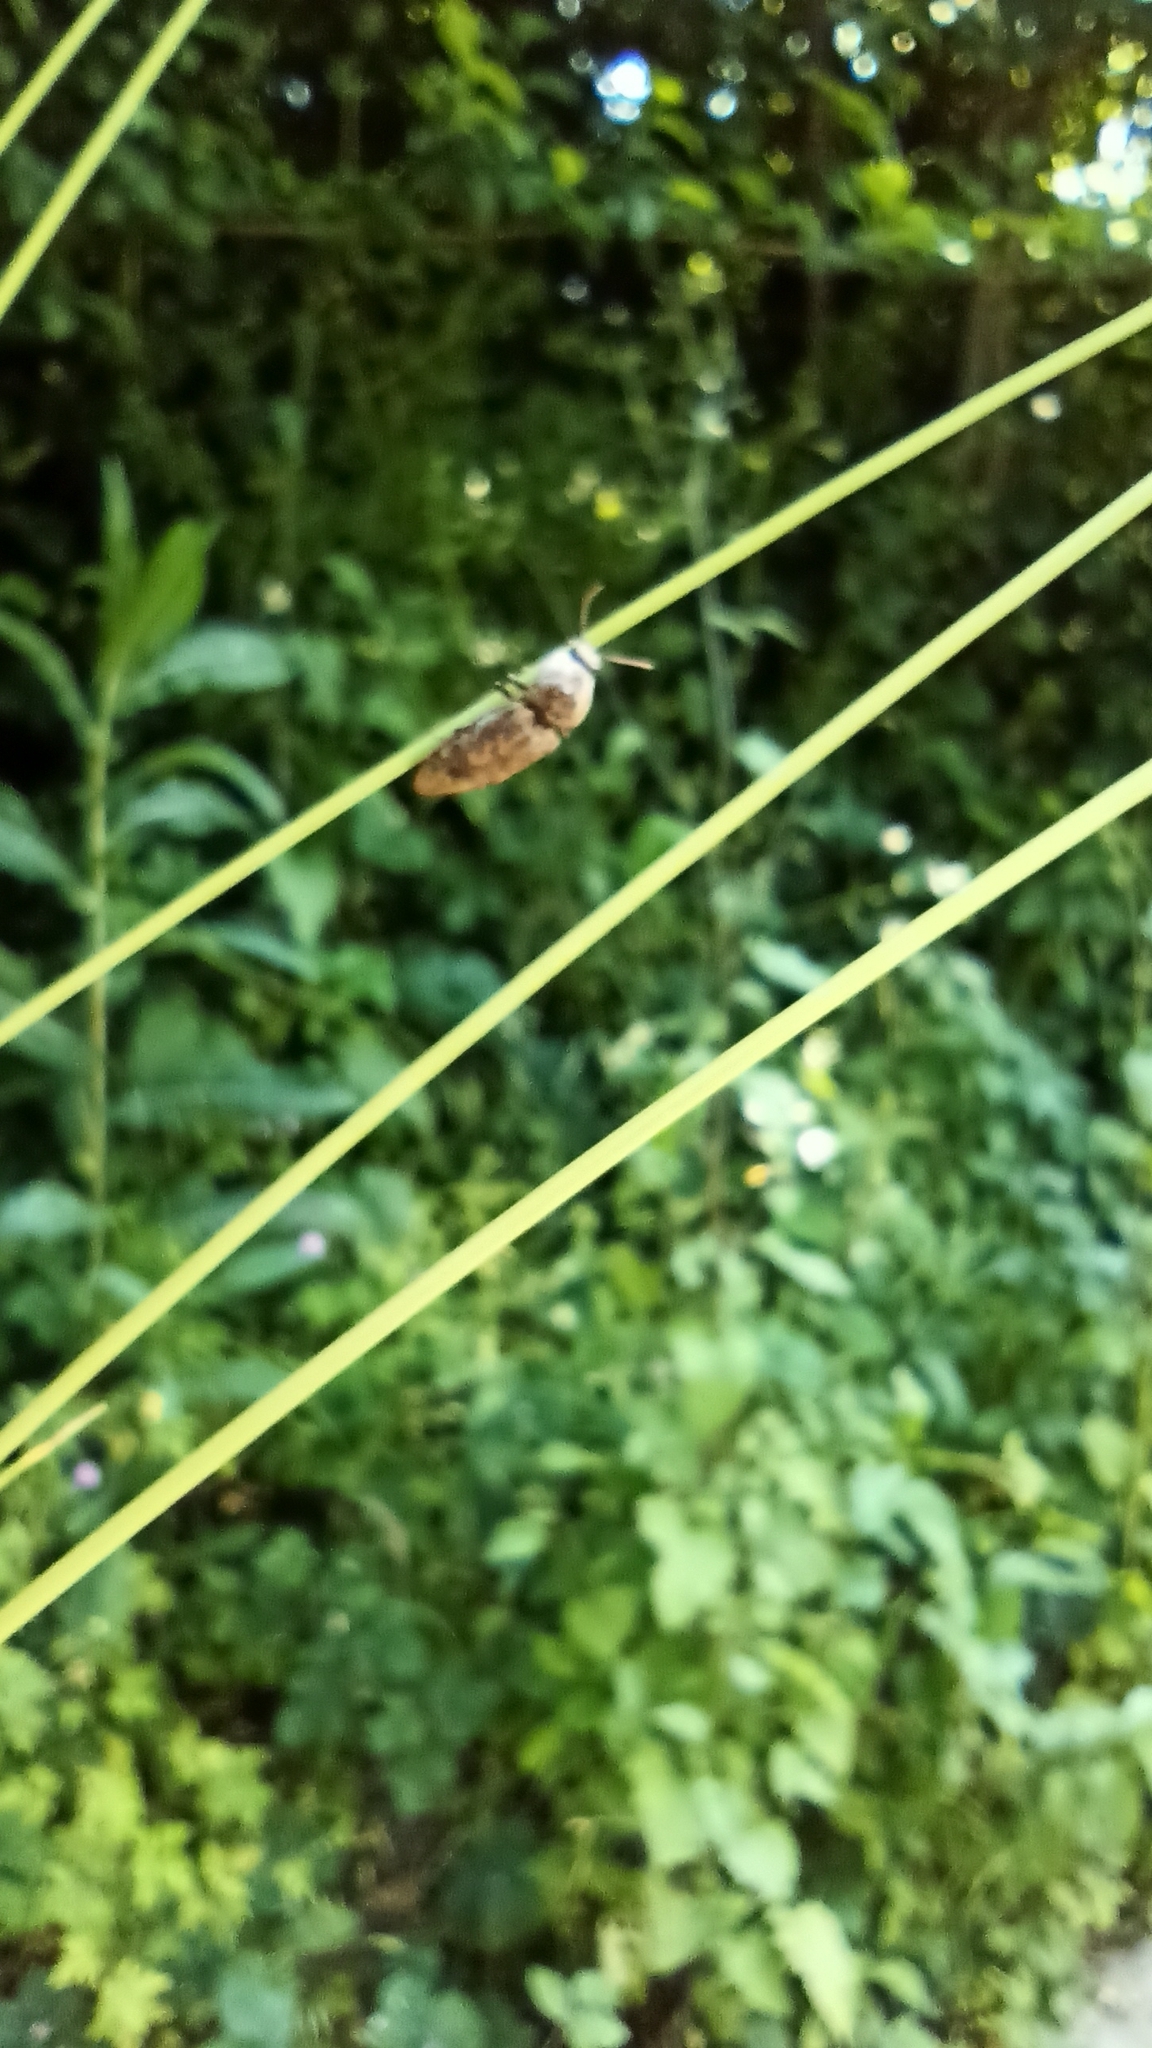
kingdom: Animalia
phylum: Arthropoda
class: Insecta
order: Coleoptera
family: Elateridae
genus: Agrypnus
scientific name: Agrypnus murinus
